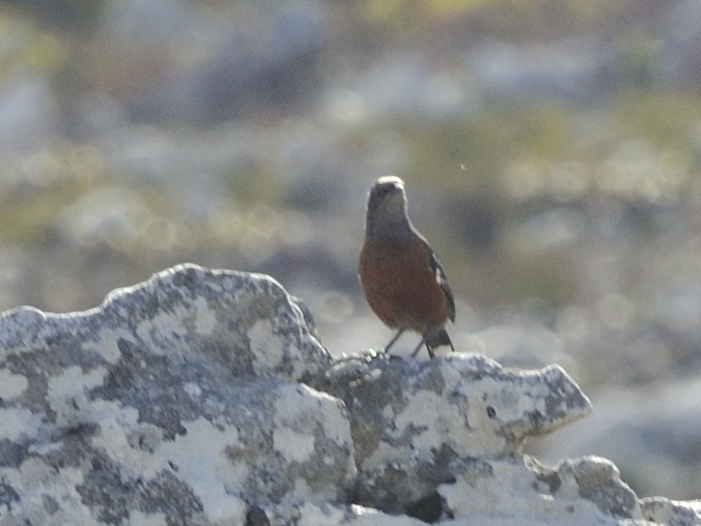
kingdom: Animalia
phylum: Chordata
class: Aves
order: Passeriformes
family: Chaetopidae
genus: Chaetops
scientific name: Chaetops frenatus
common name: Cape rockjumper
